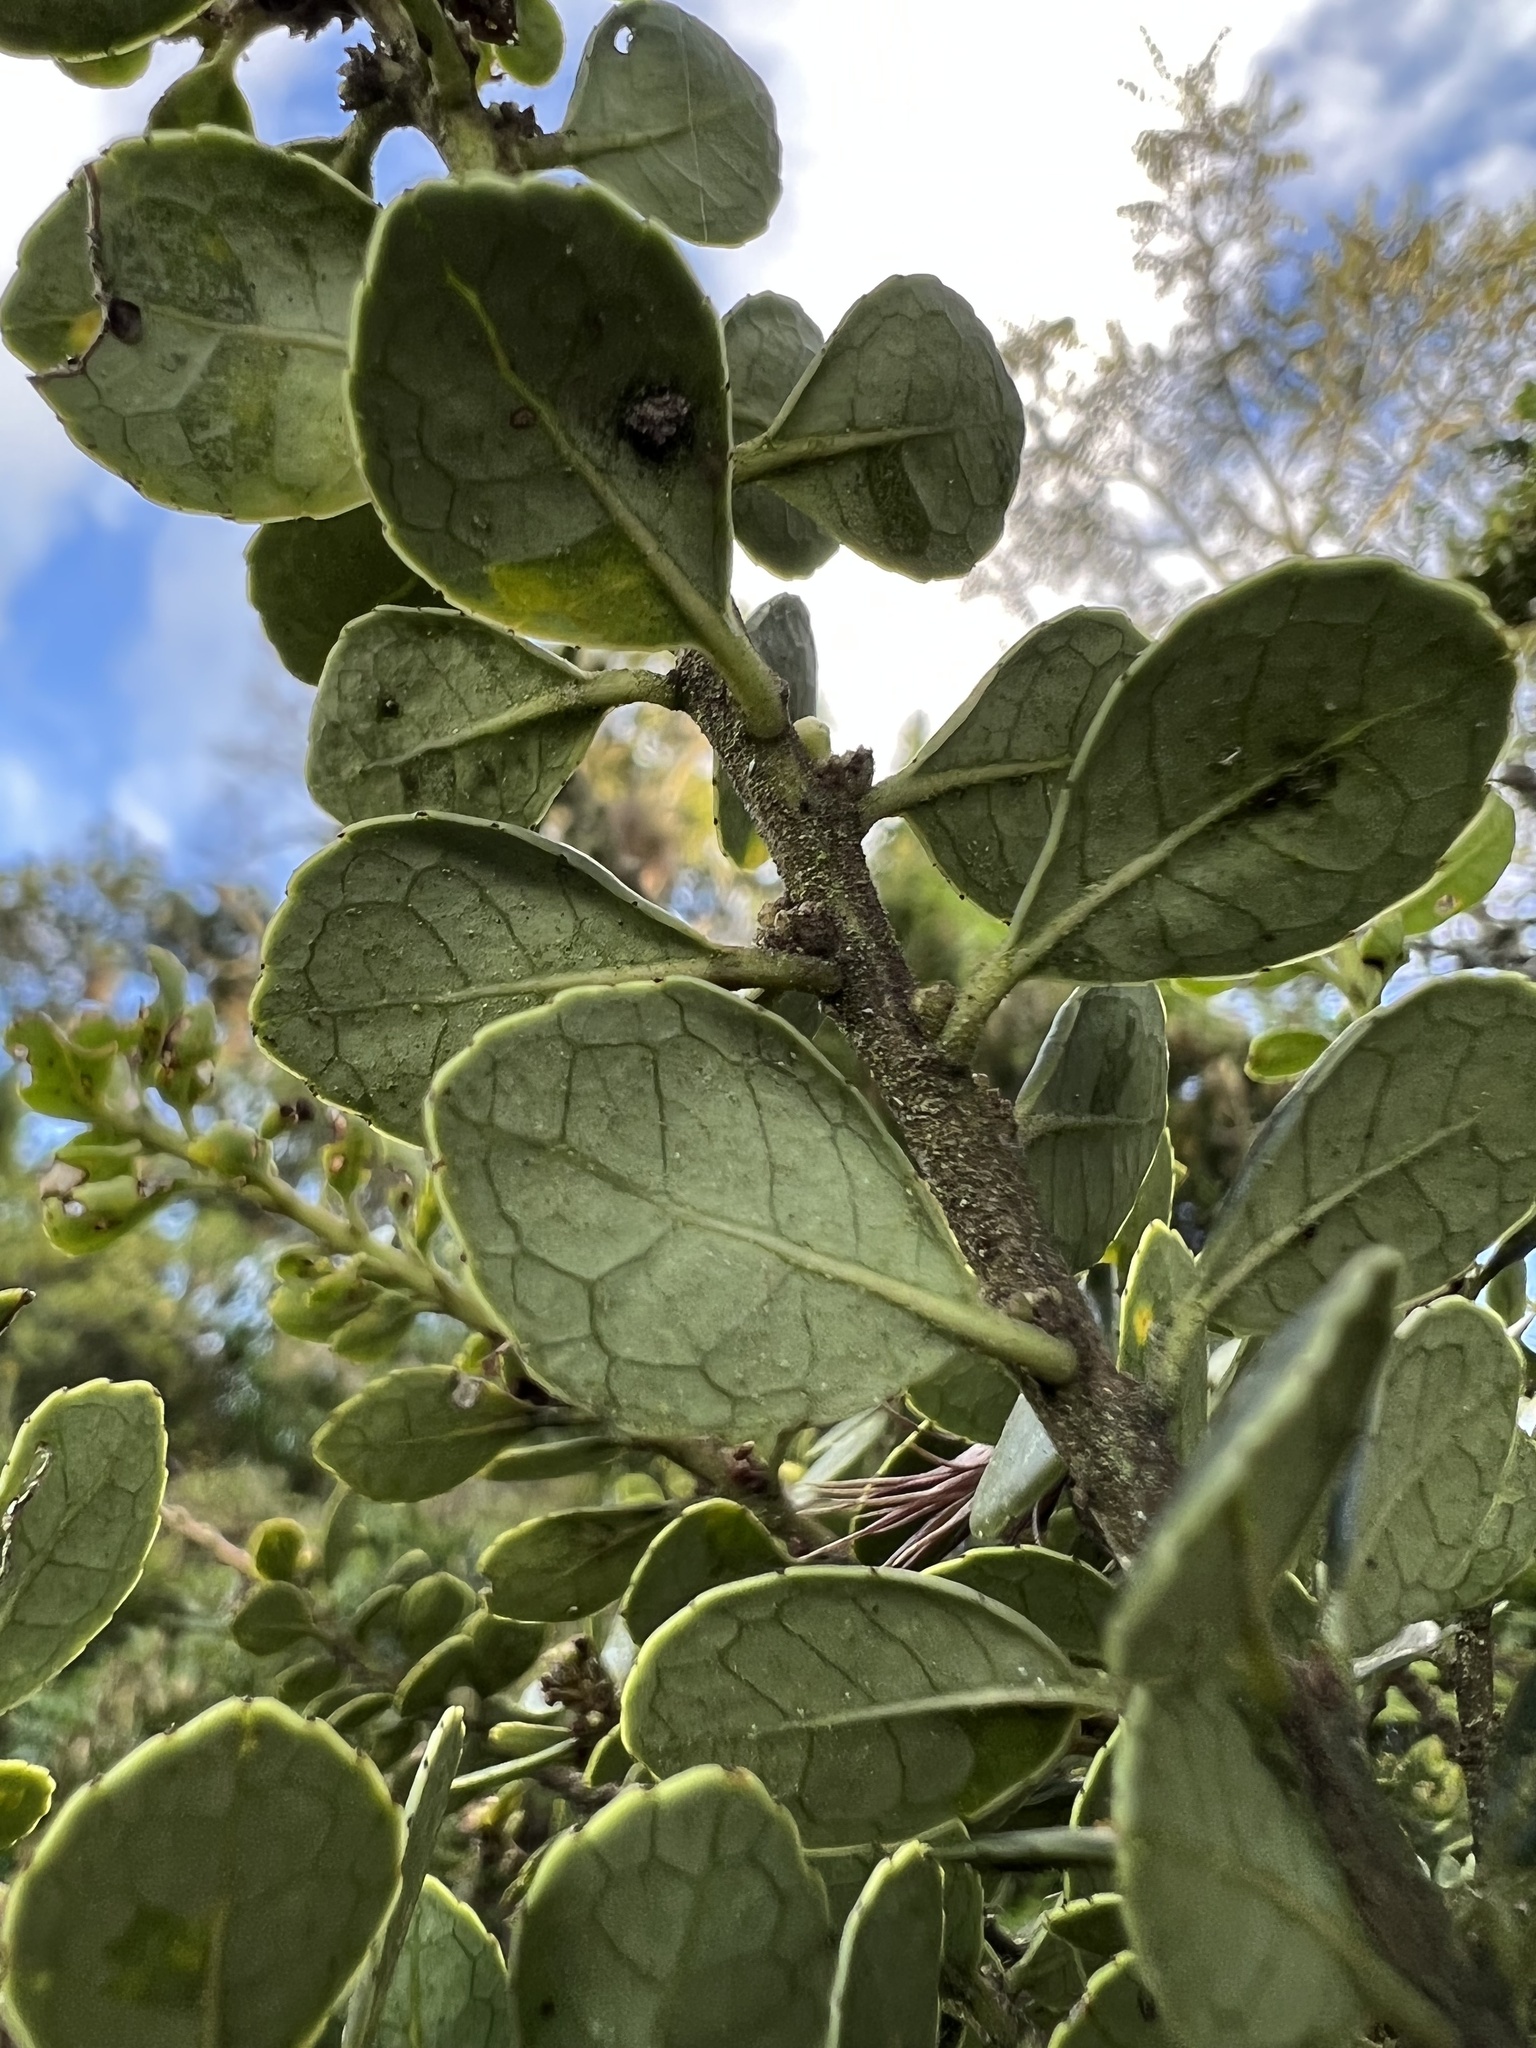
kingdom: Plantae
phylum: Tracheophyta
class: Magnoliopsida
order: Aquifoliales
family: Aquifoliaceae
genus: Ilex
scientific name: Ilex microphylla
